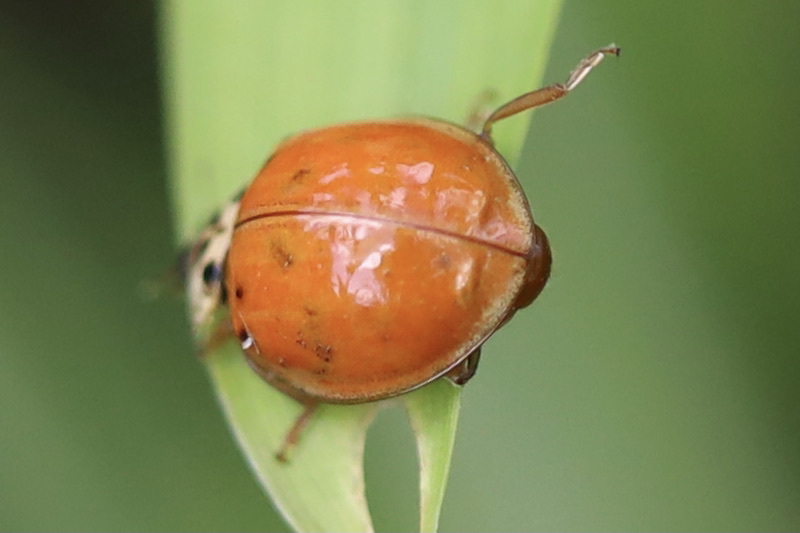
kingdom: Animalia
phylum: Arthropoda
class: Insecta
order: Coleoptera
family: Coccinellidae
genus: Harmonia
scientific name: Harmonia axyridis
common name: Harlequin ladybird
